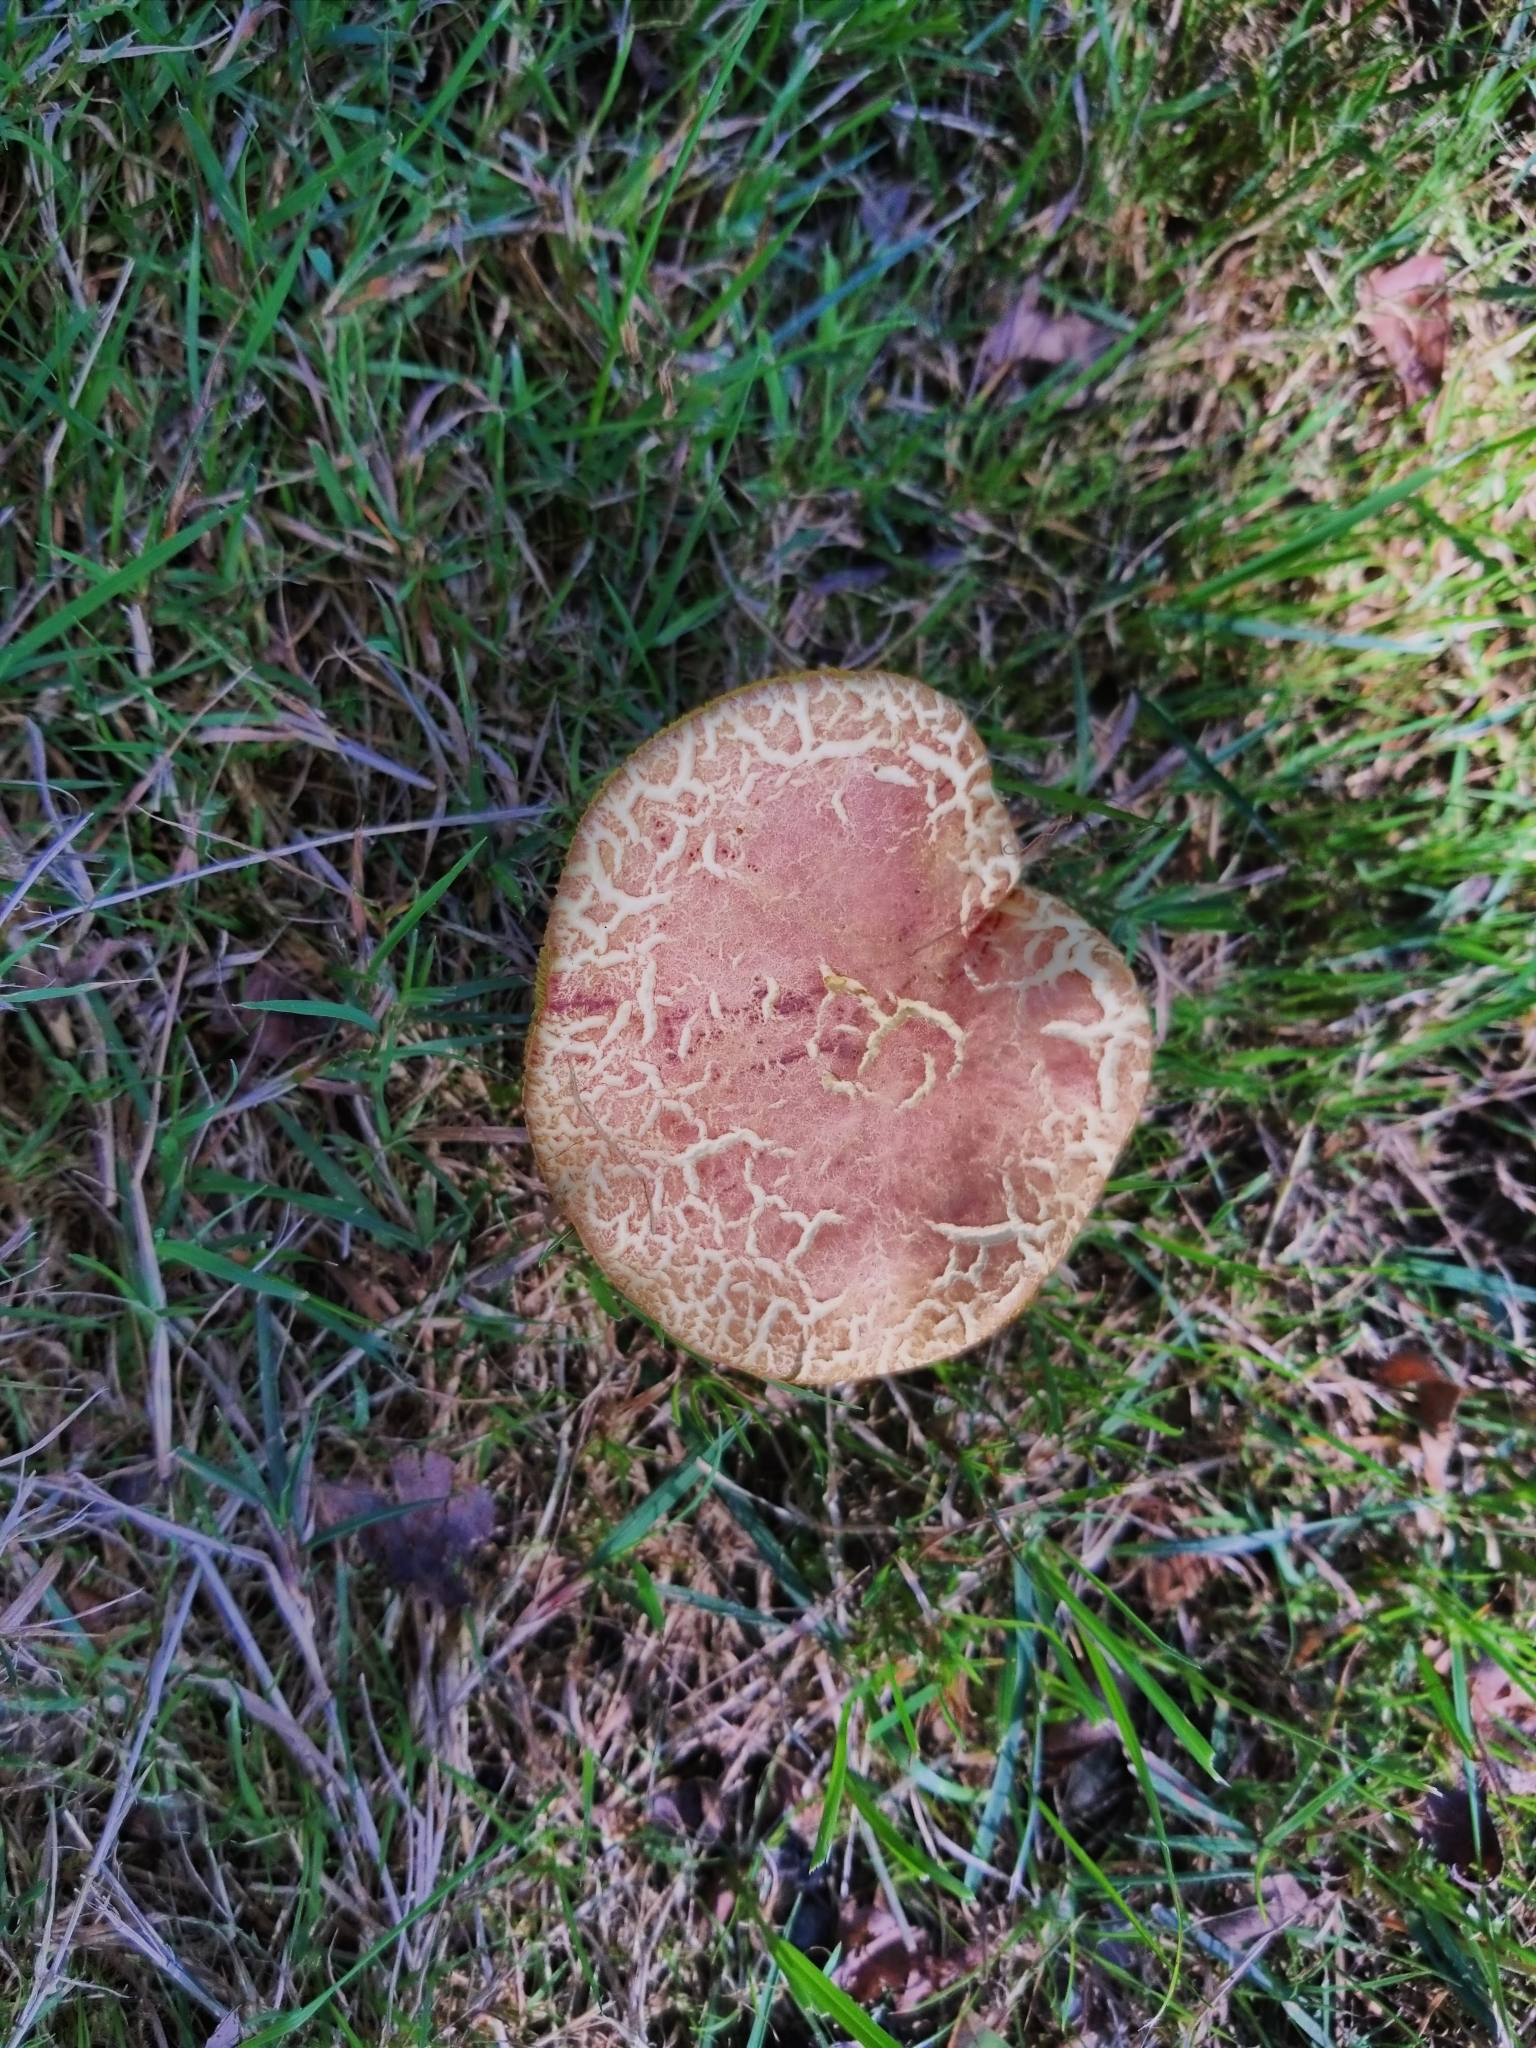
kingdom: Fungi
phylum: Basidiomycota
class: Agaricomycetes
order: Boletales
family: Boletaceae
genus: Xerocomellus
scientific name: Xerocomellus chrysenteron
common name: Red-cracking bolete
